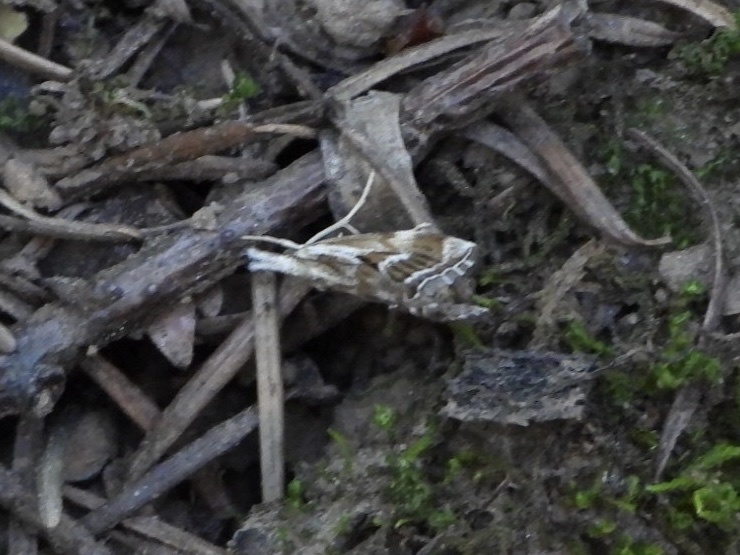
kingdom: Animalia
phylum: Arthropoda
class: Insecta
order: Lepidoptera
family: Crambidae
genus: Catoptria
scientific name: Catoptria oregonicus
